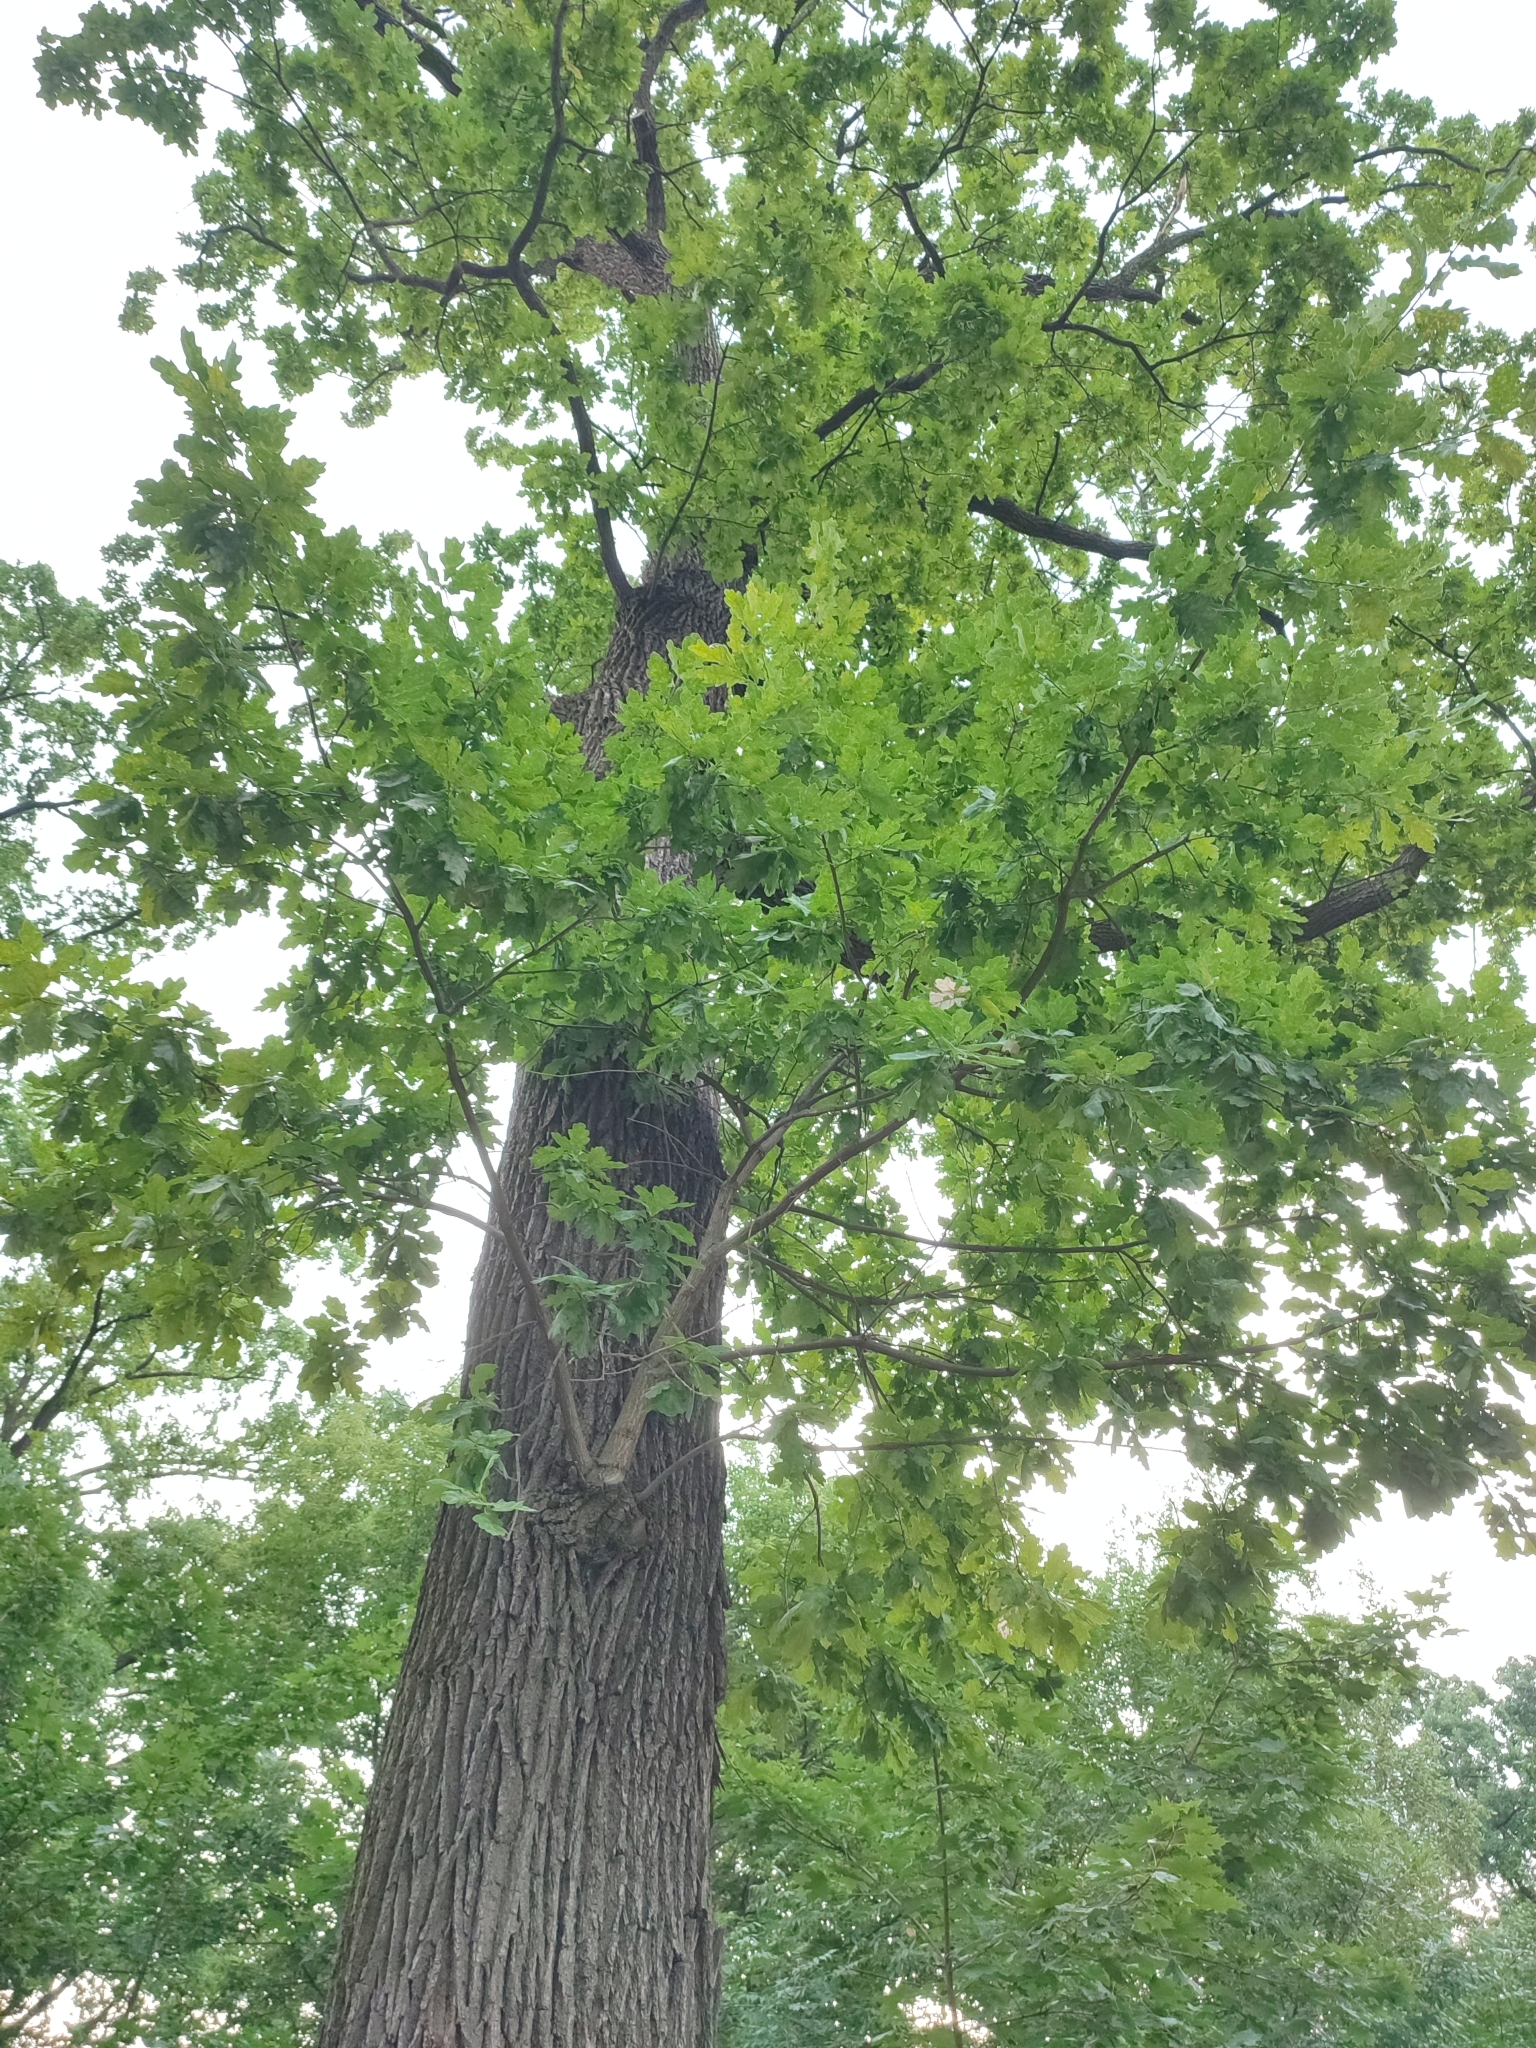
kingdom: Plantae
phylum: Tracheophyta
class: Magnoliopsida
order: Fagales
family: Fagaceae
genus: Quercus
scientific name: Quercus robur
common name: Pedunculate oak
